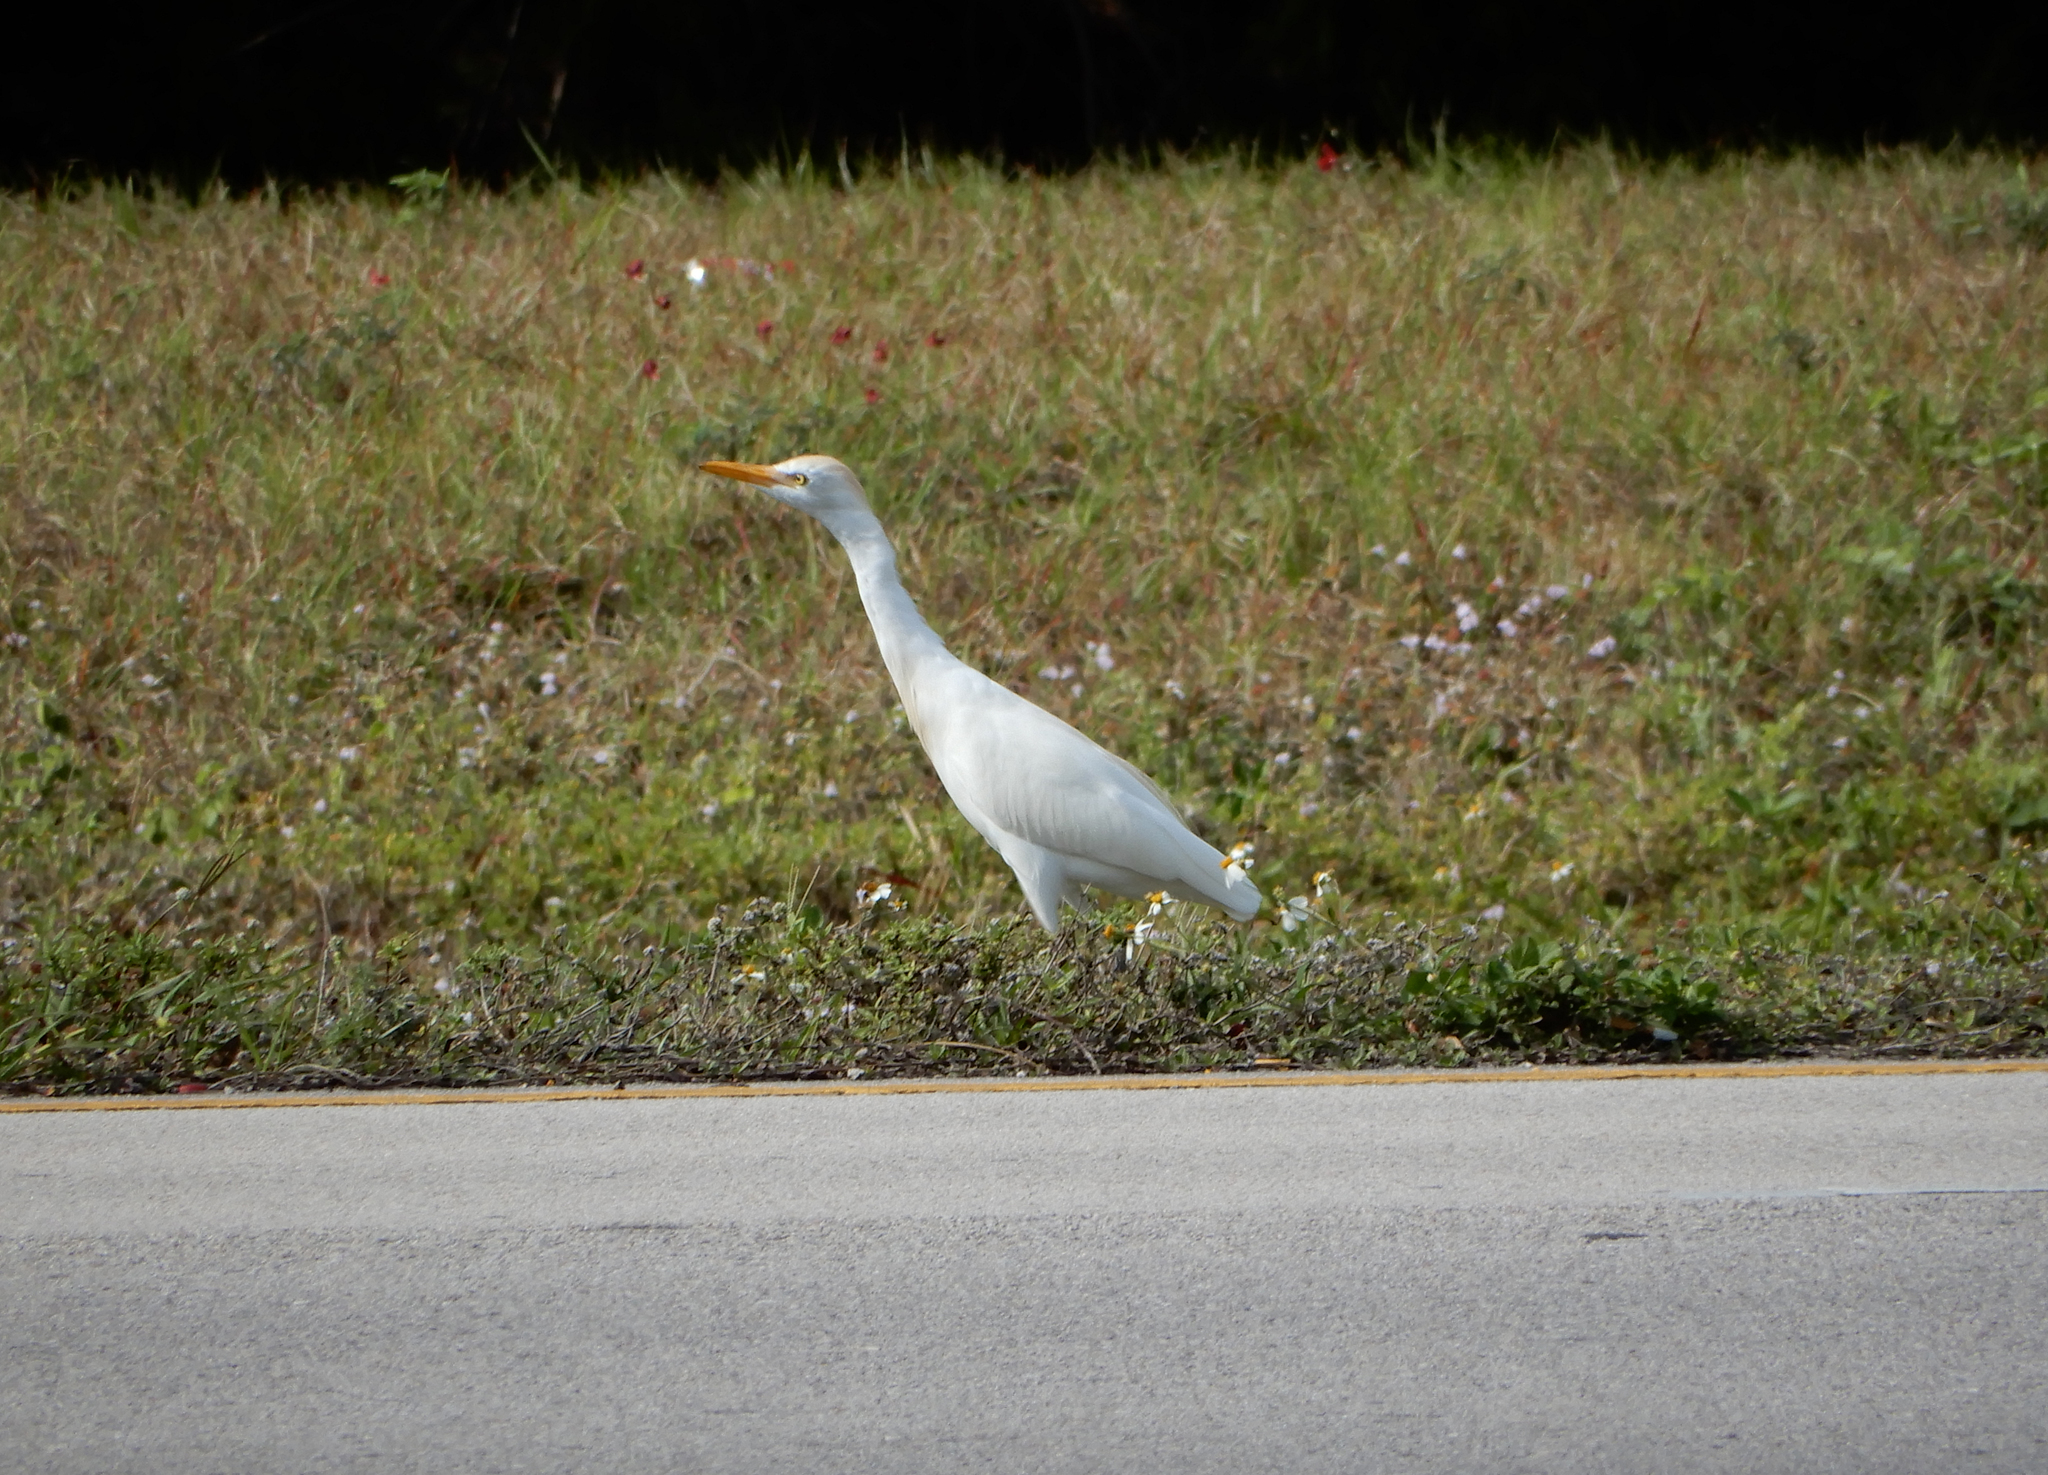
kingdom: Animalia
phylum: Chordata
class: Aves
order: Pelecaniformes
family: Ardeidae
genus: Bubulcus
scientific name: Bubulcus ibis
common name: Cattle egret
